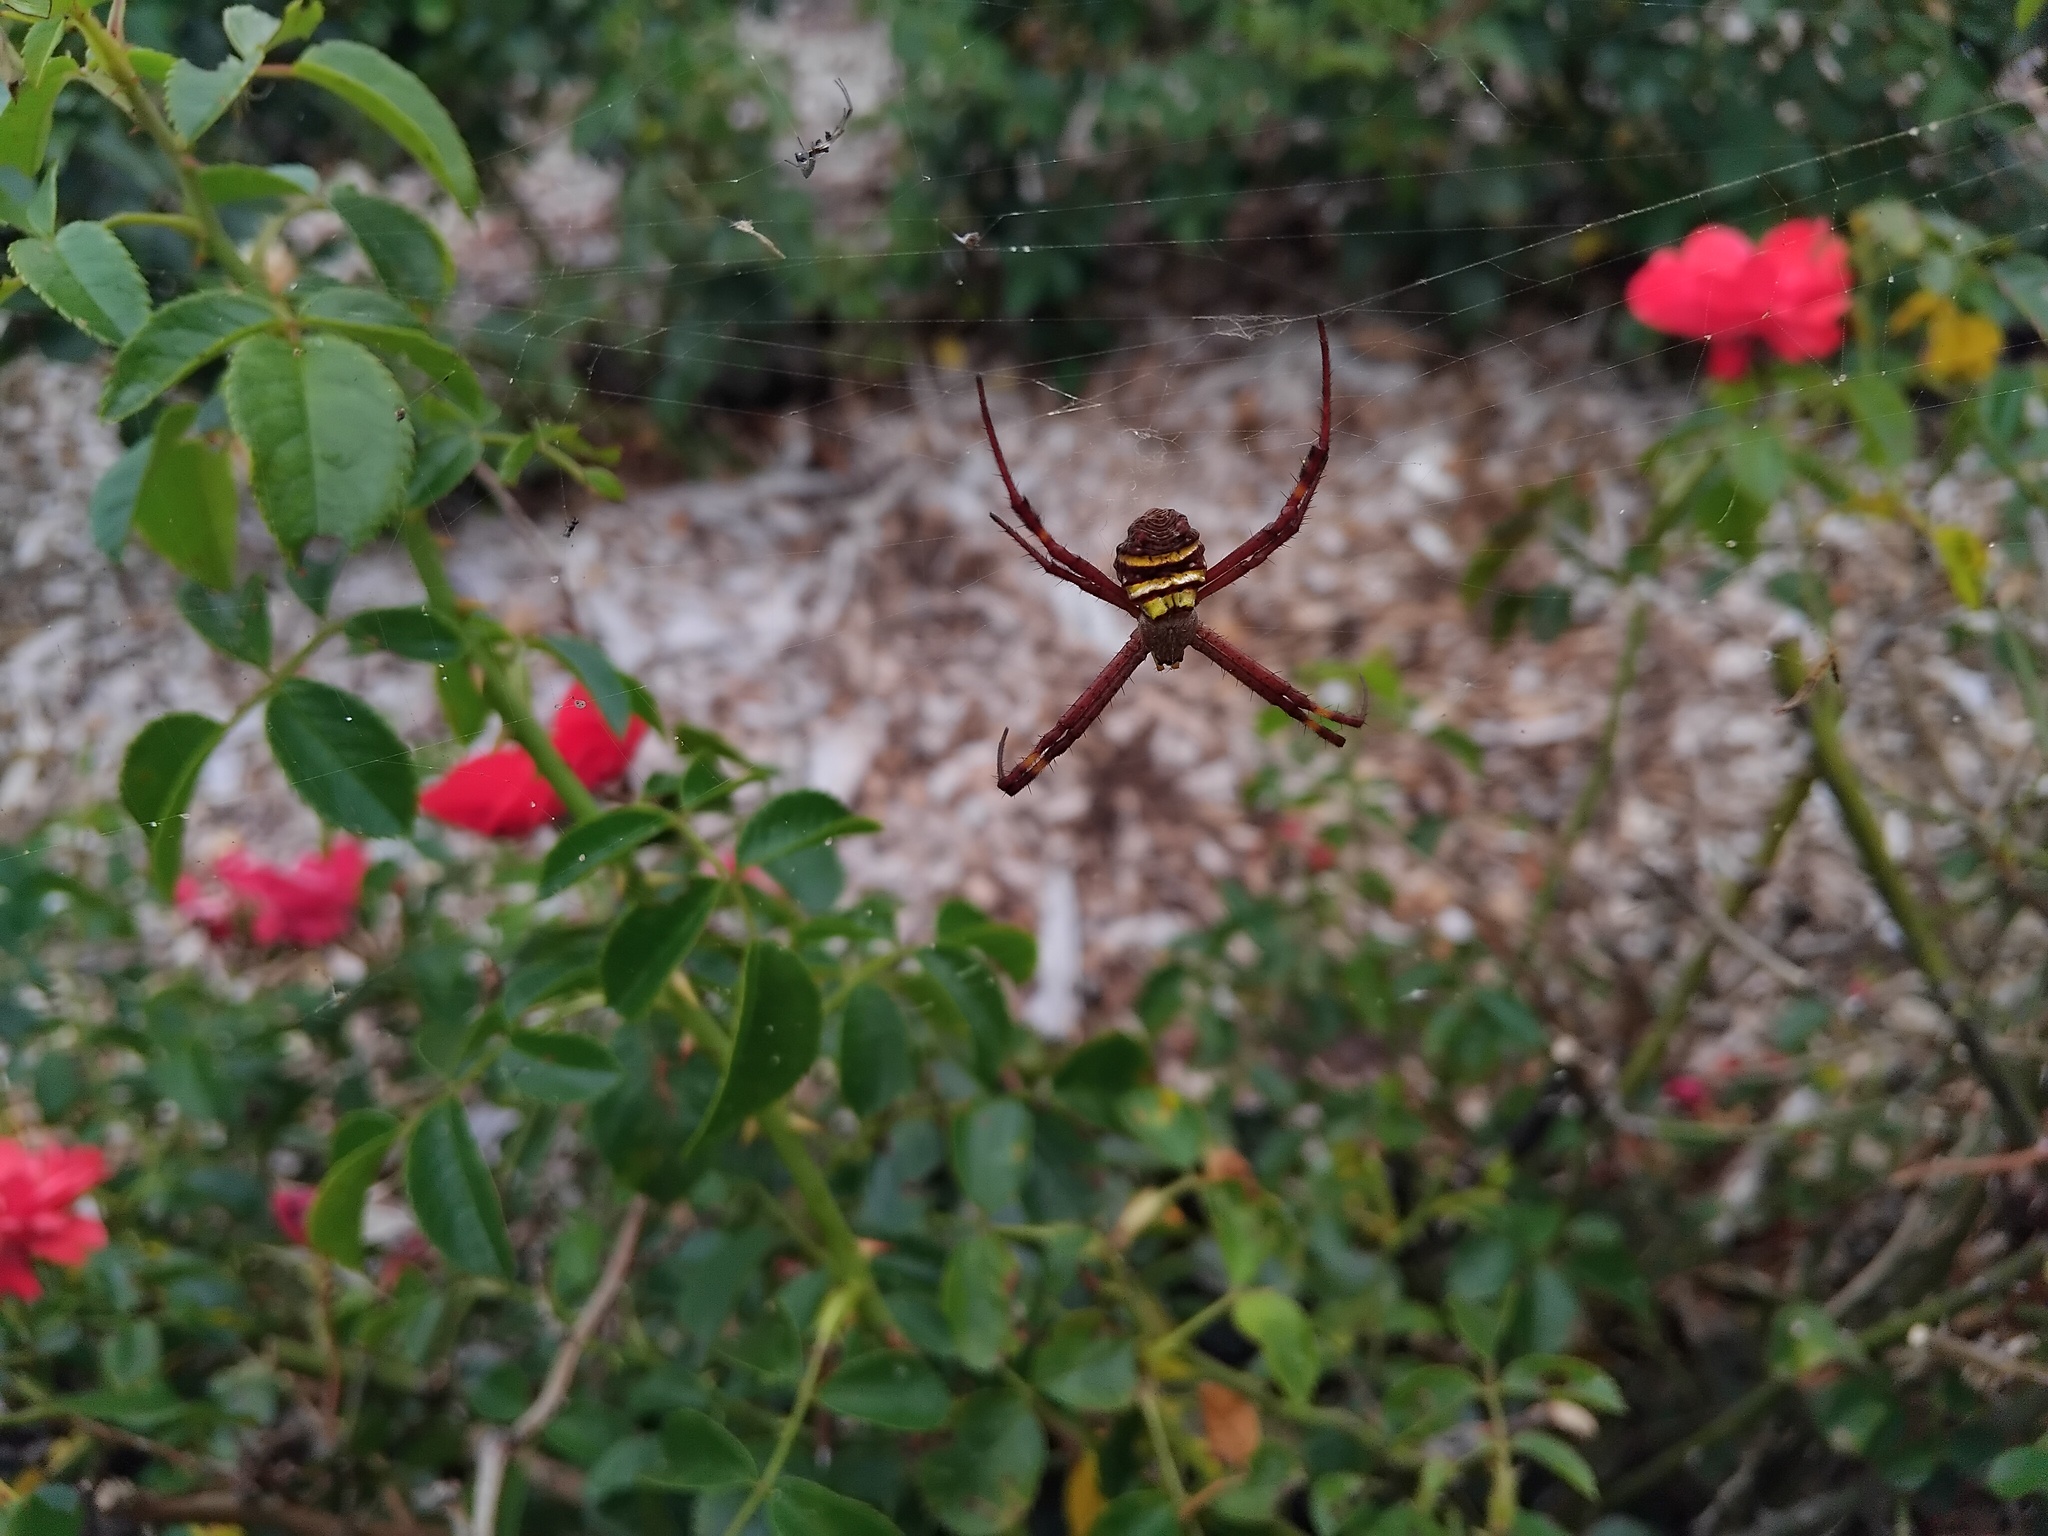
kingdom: Animalia
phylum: Arthropoda
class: Arachnida
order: Araneae
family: Araneidae
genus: Argiope
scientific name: Argiope keyserlingi
